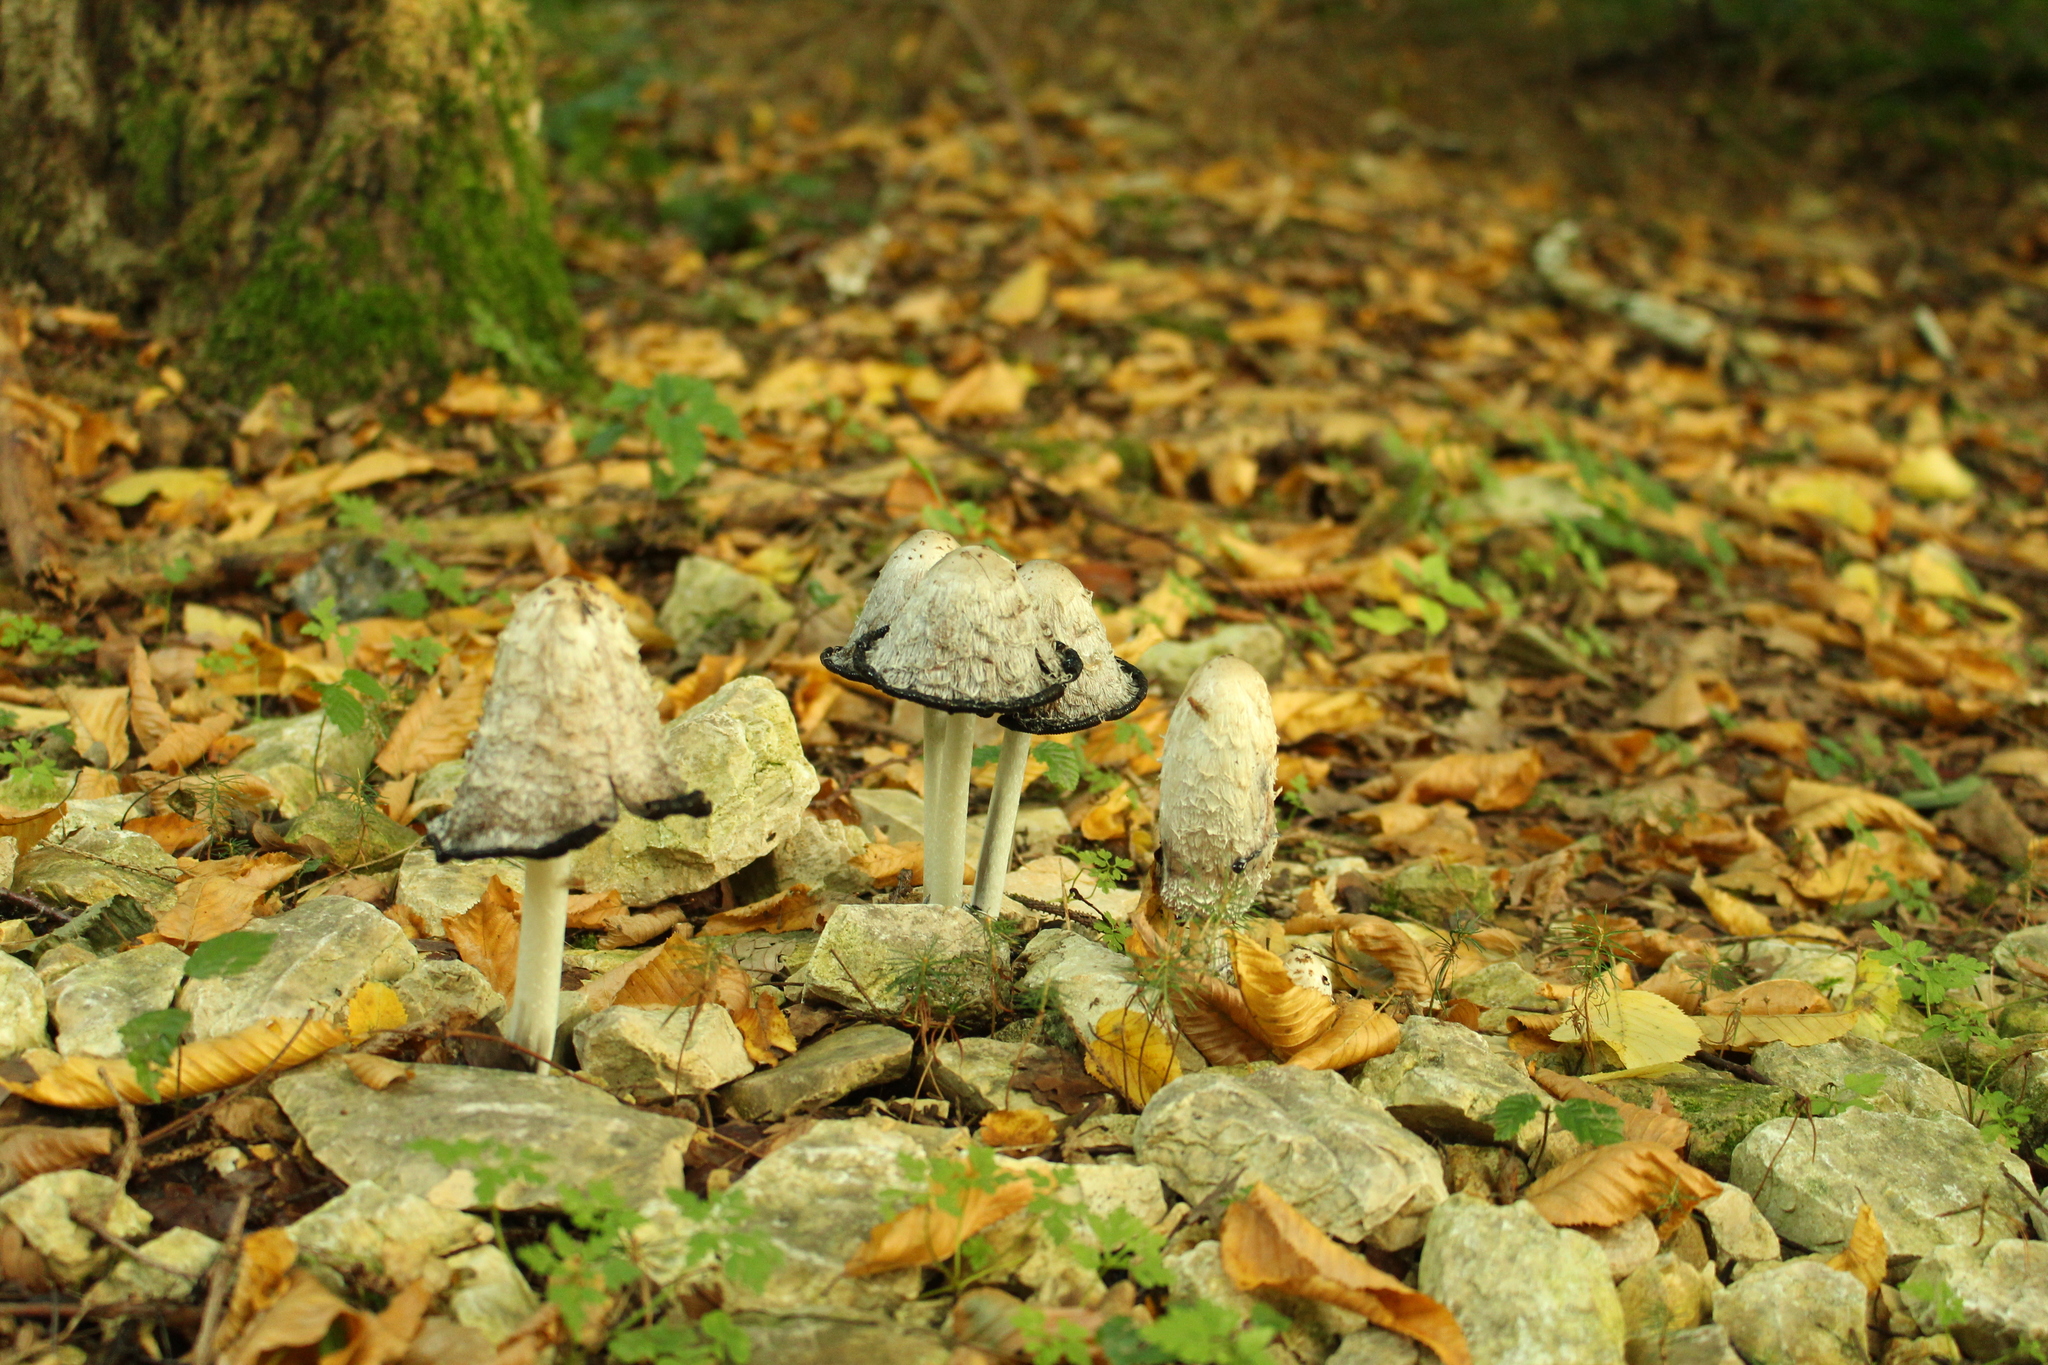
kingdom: Fungi
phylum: Basidiomycota
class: Agaricomycetes
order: Agaricales
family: Agaricaceae
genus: Coprinus
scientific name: Coprinus comatus
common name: Lawyer's wig
